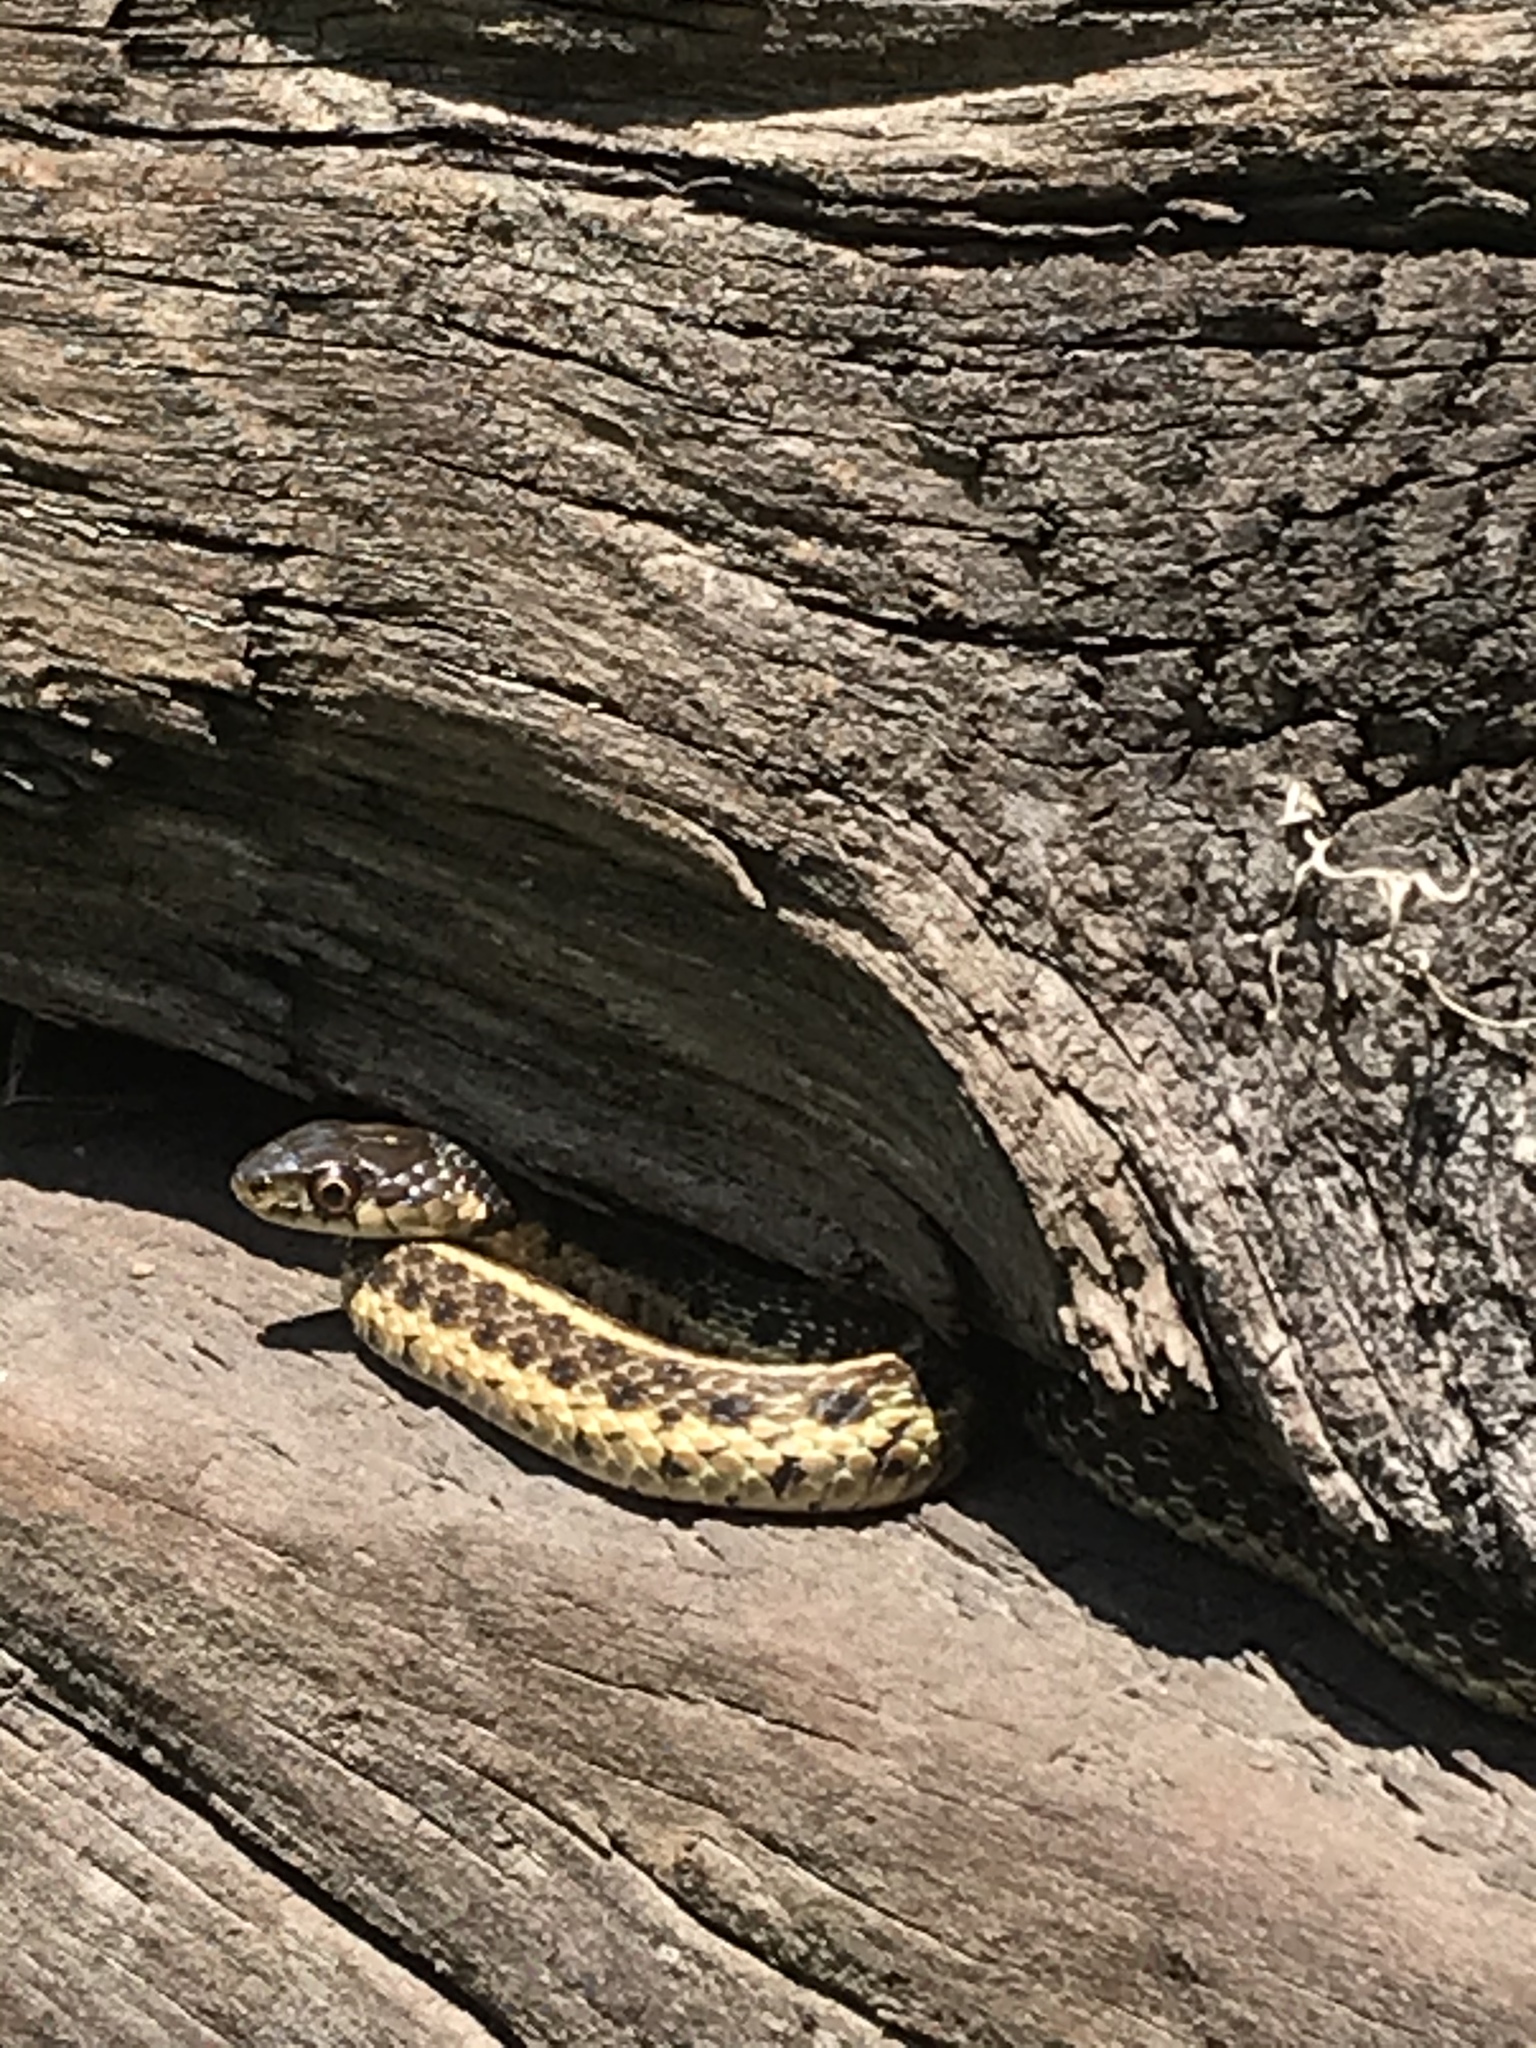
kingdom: Animalia
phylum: Chordata
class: Squamata
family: Colubridae
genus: Thamnophis
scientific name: Thamnophis sirtalis
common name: Common garter snake
